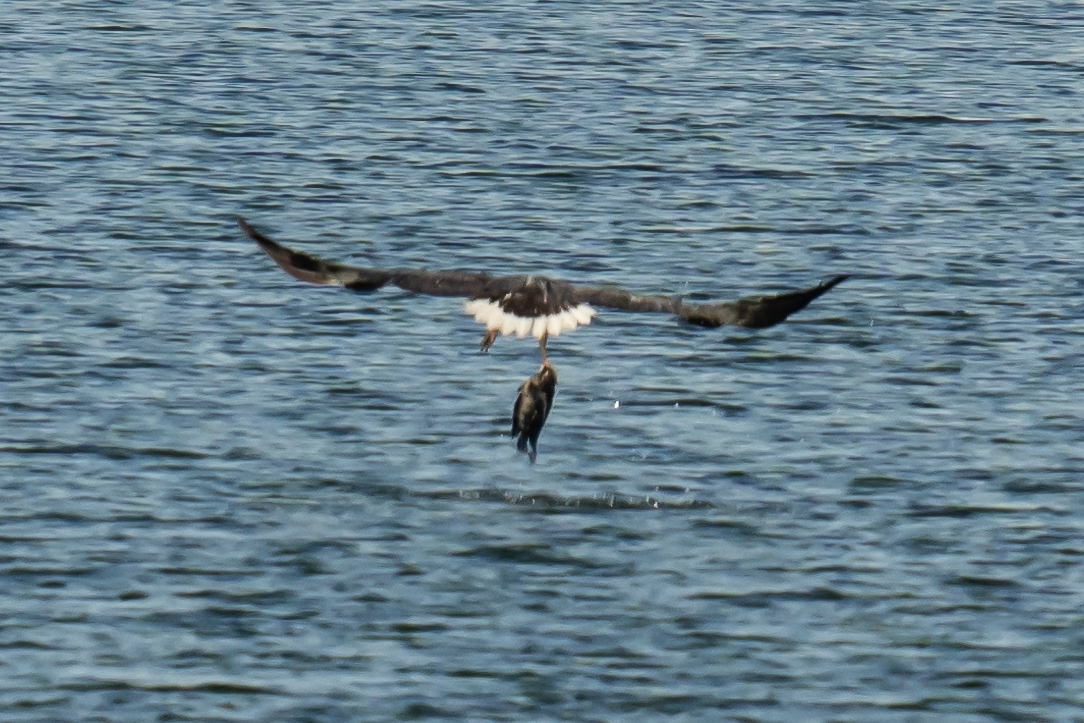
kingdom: Animalia
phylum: Chordata
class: Aves
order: Accipitriformes
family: Accipitridae
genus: Haliaeetus
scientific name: Haliaeetus leucogaster
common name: White-bellied sea eagle
